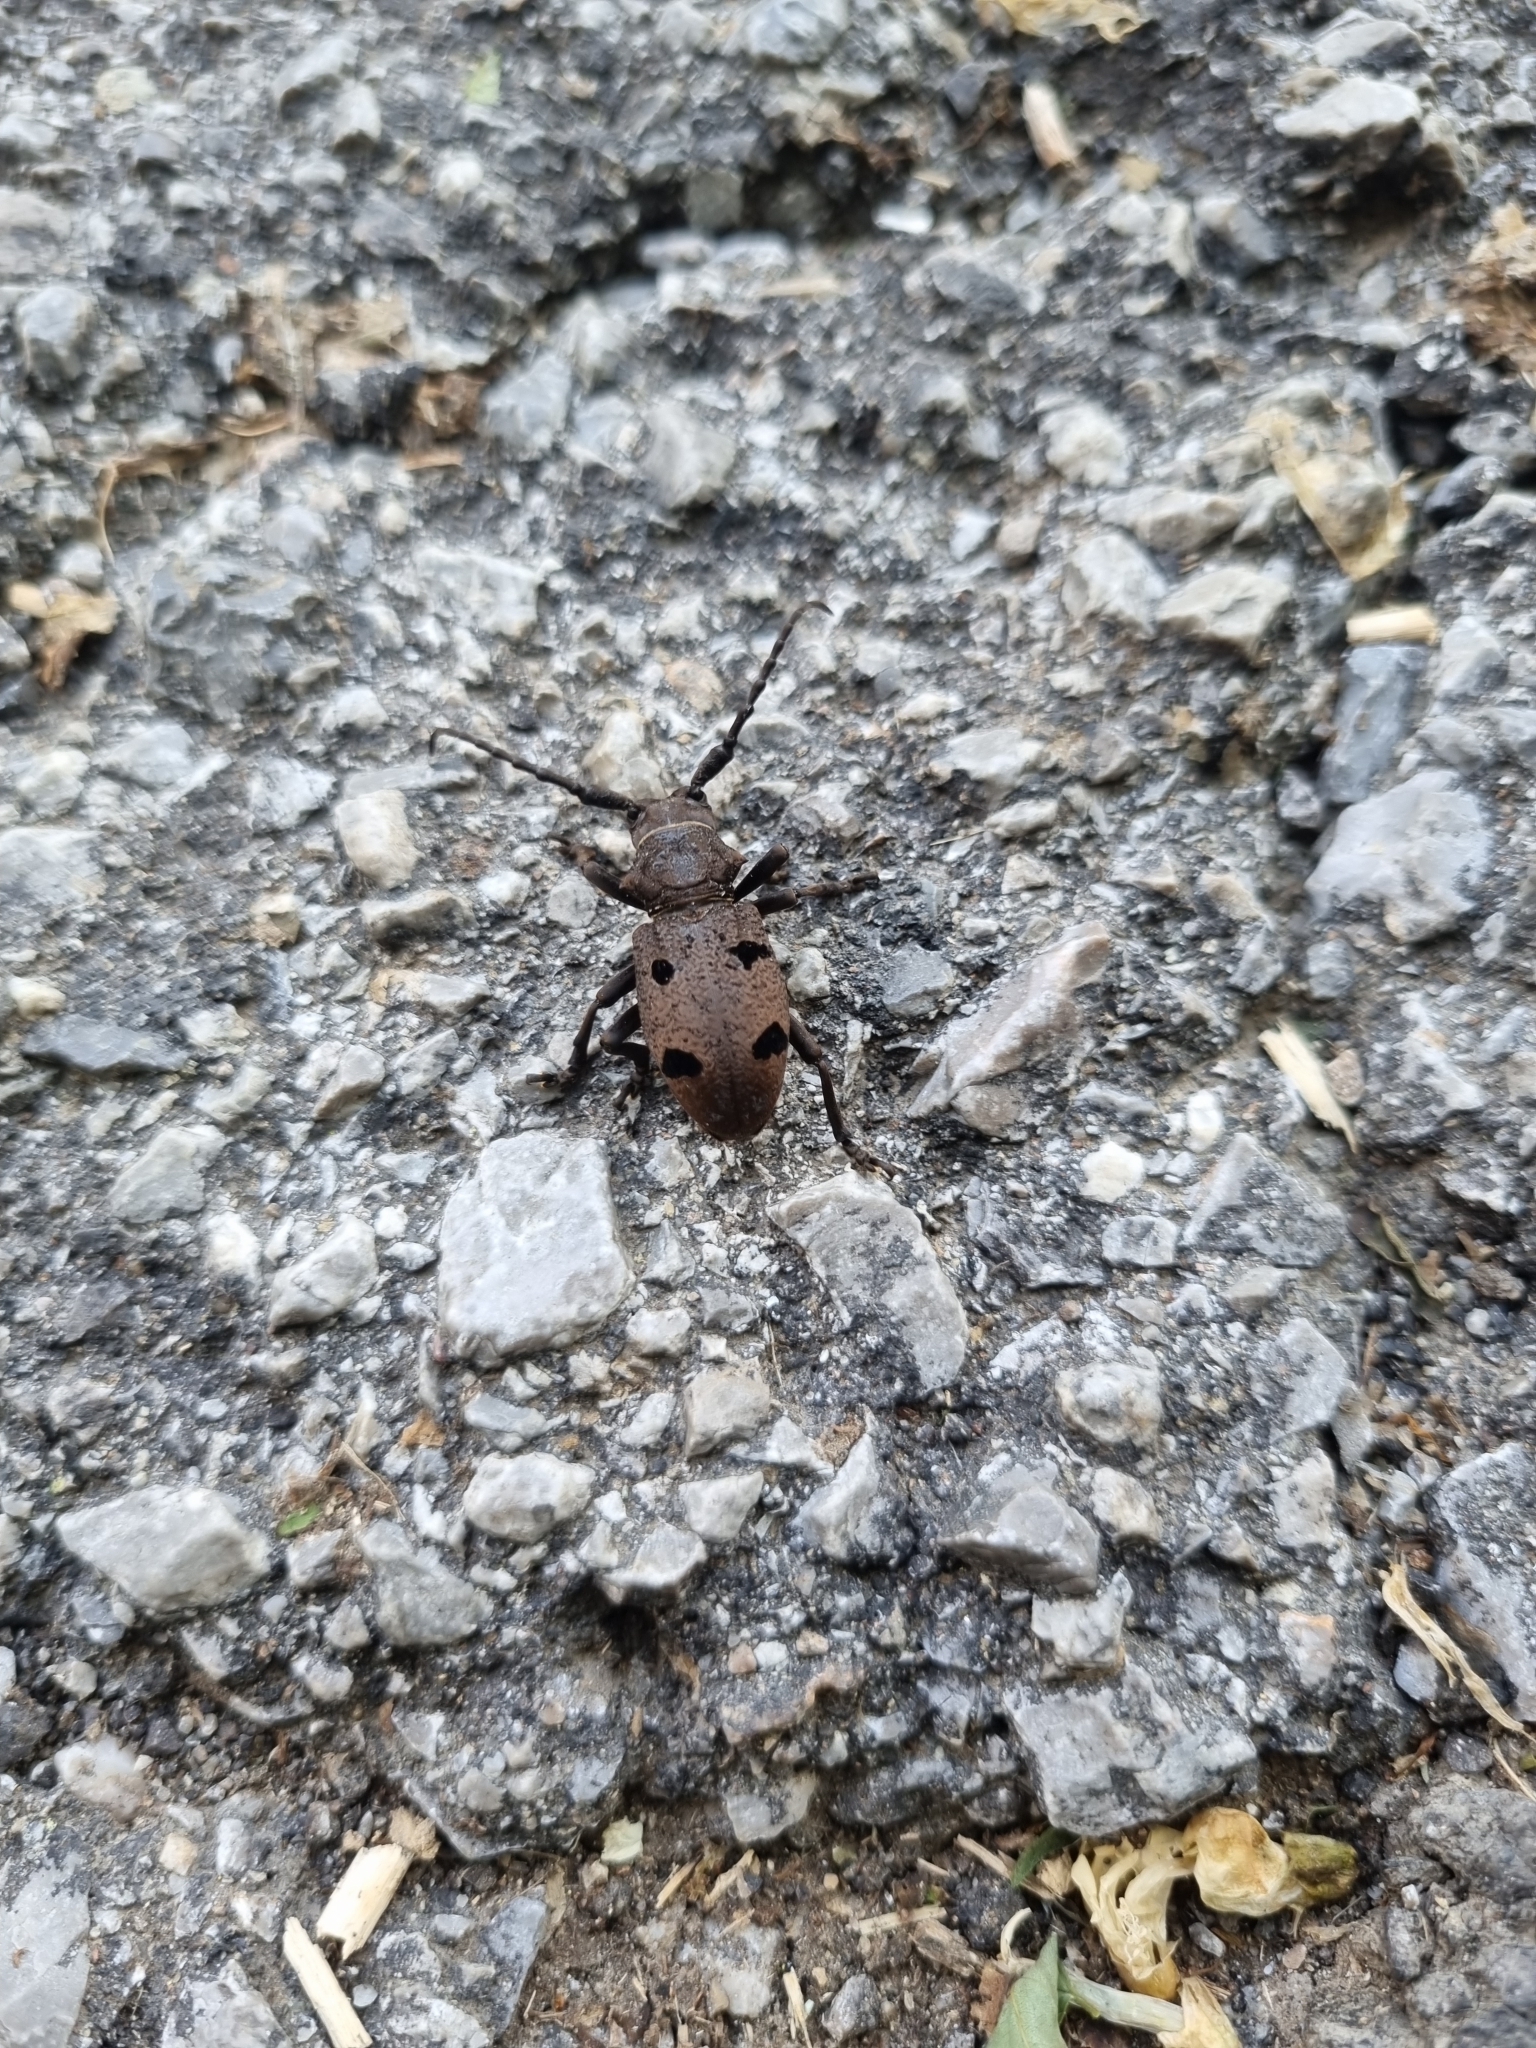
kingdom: Animalia
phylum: Arthropoda
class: Insecta
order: Coleoptera
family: Cerambycidae
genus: Herophila
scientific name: Herophila tristis
